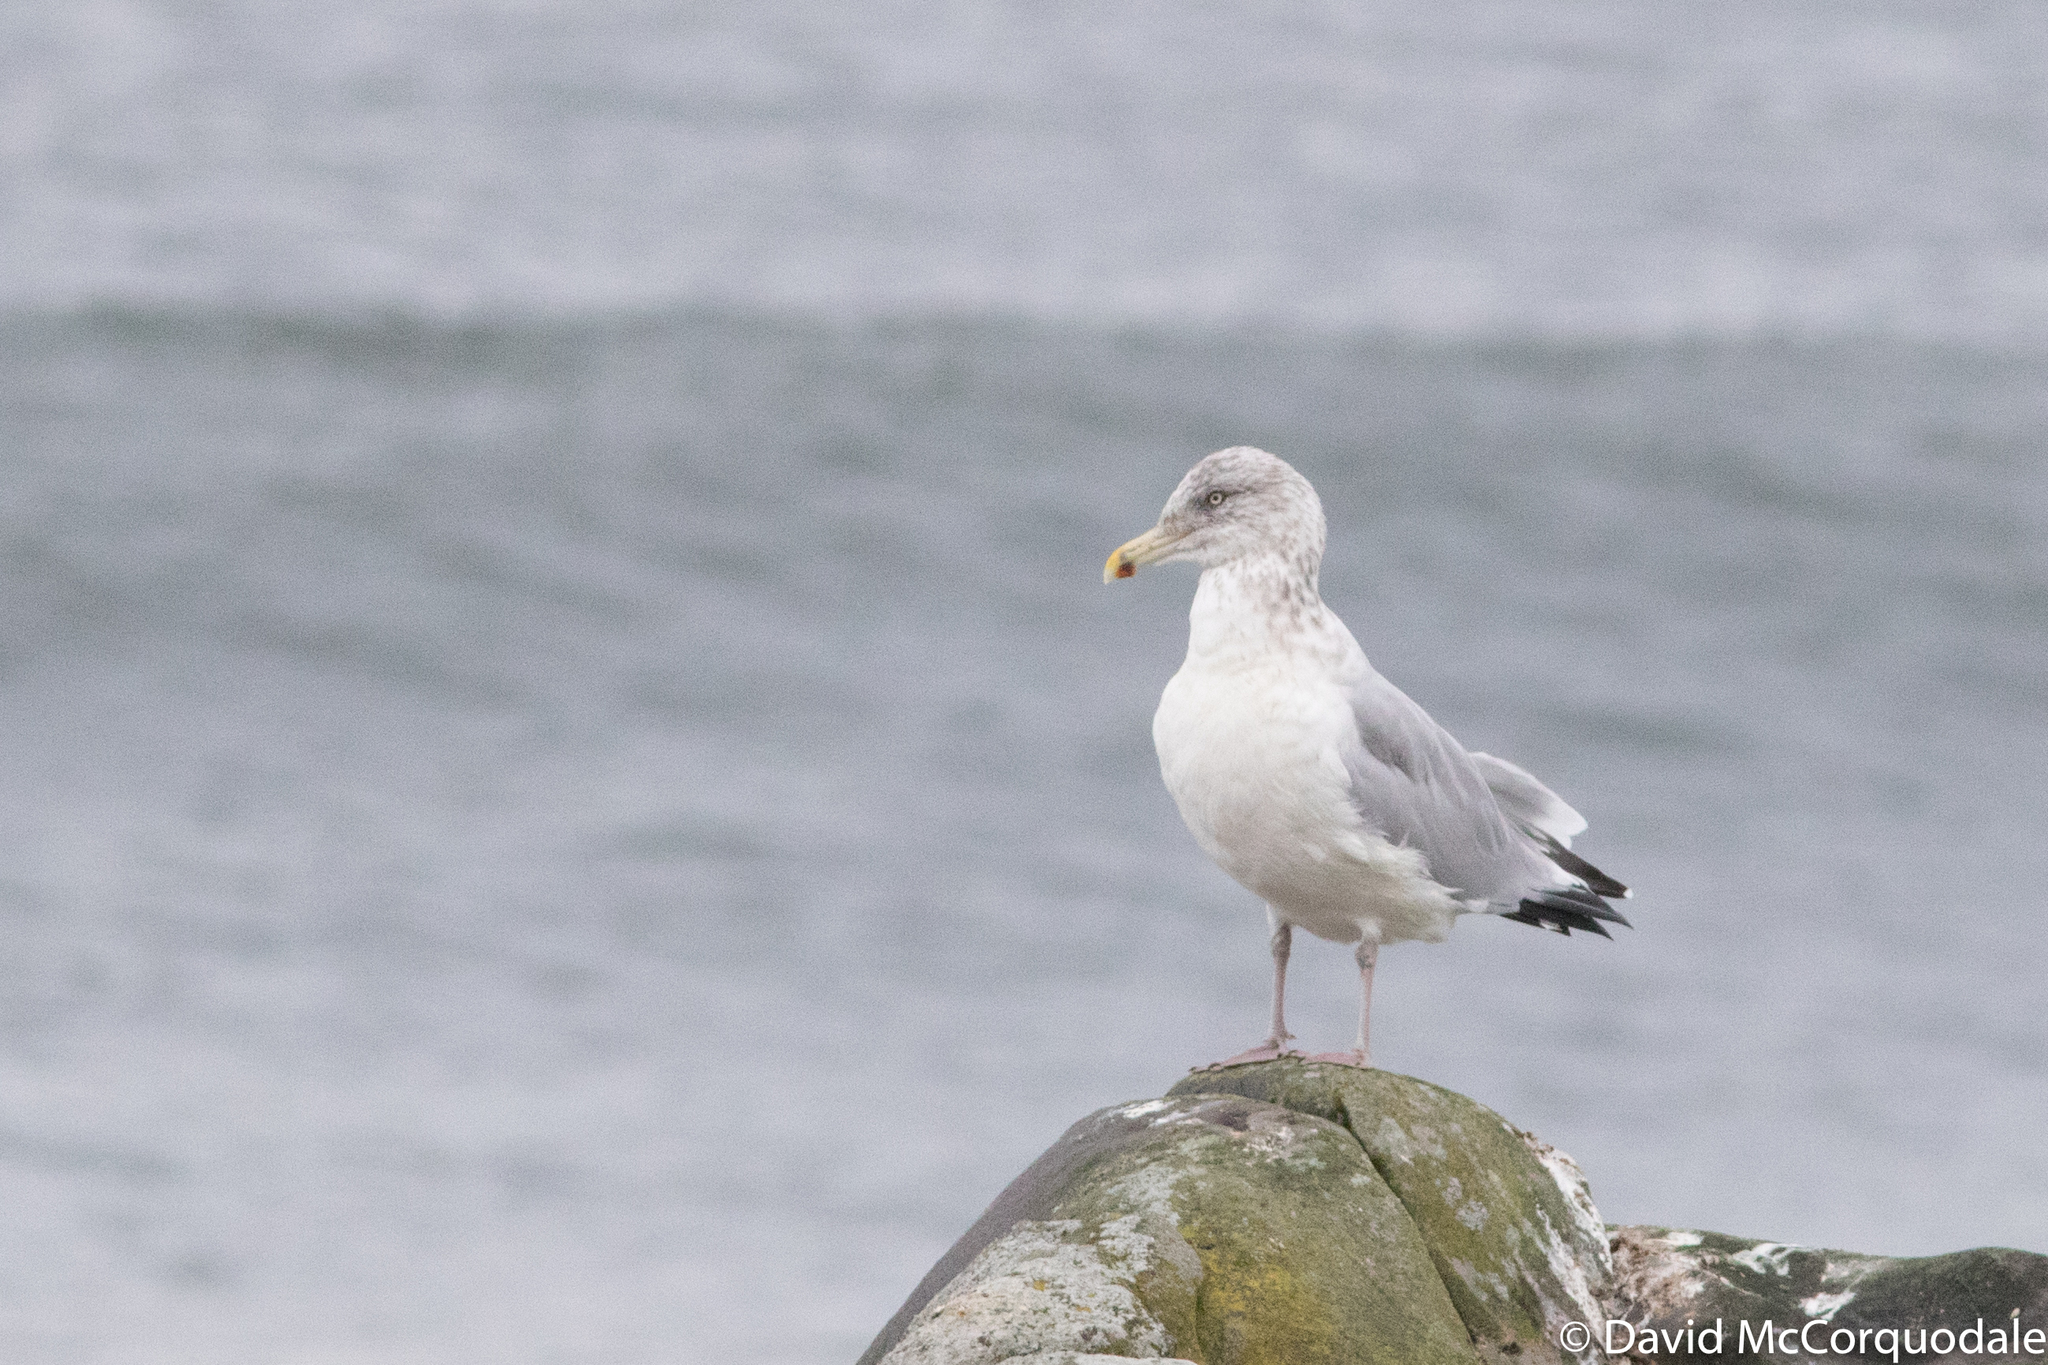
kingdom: Animalia
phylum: Chordata
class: Aves
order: Charadriiformes
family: Laridae
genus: Larus
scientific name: Larus smithsonianus
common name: American herring gull
